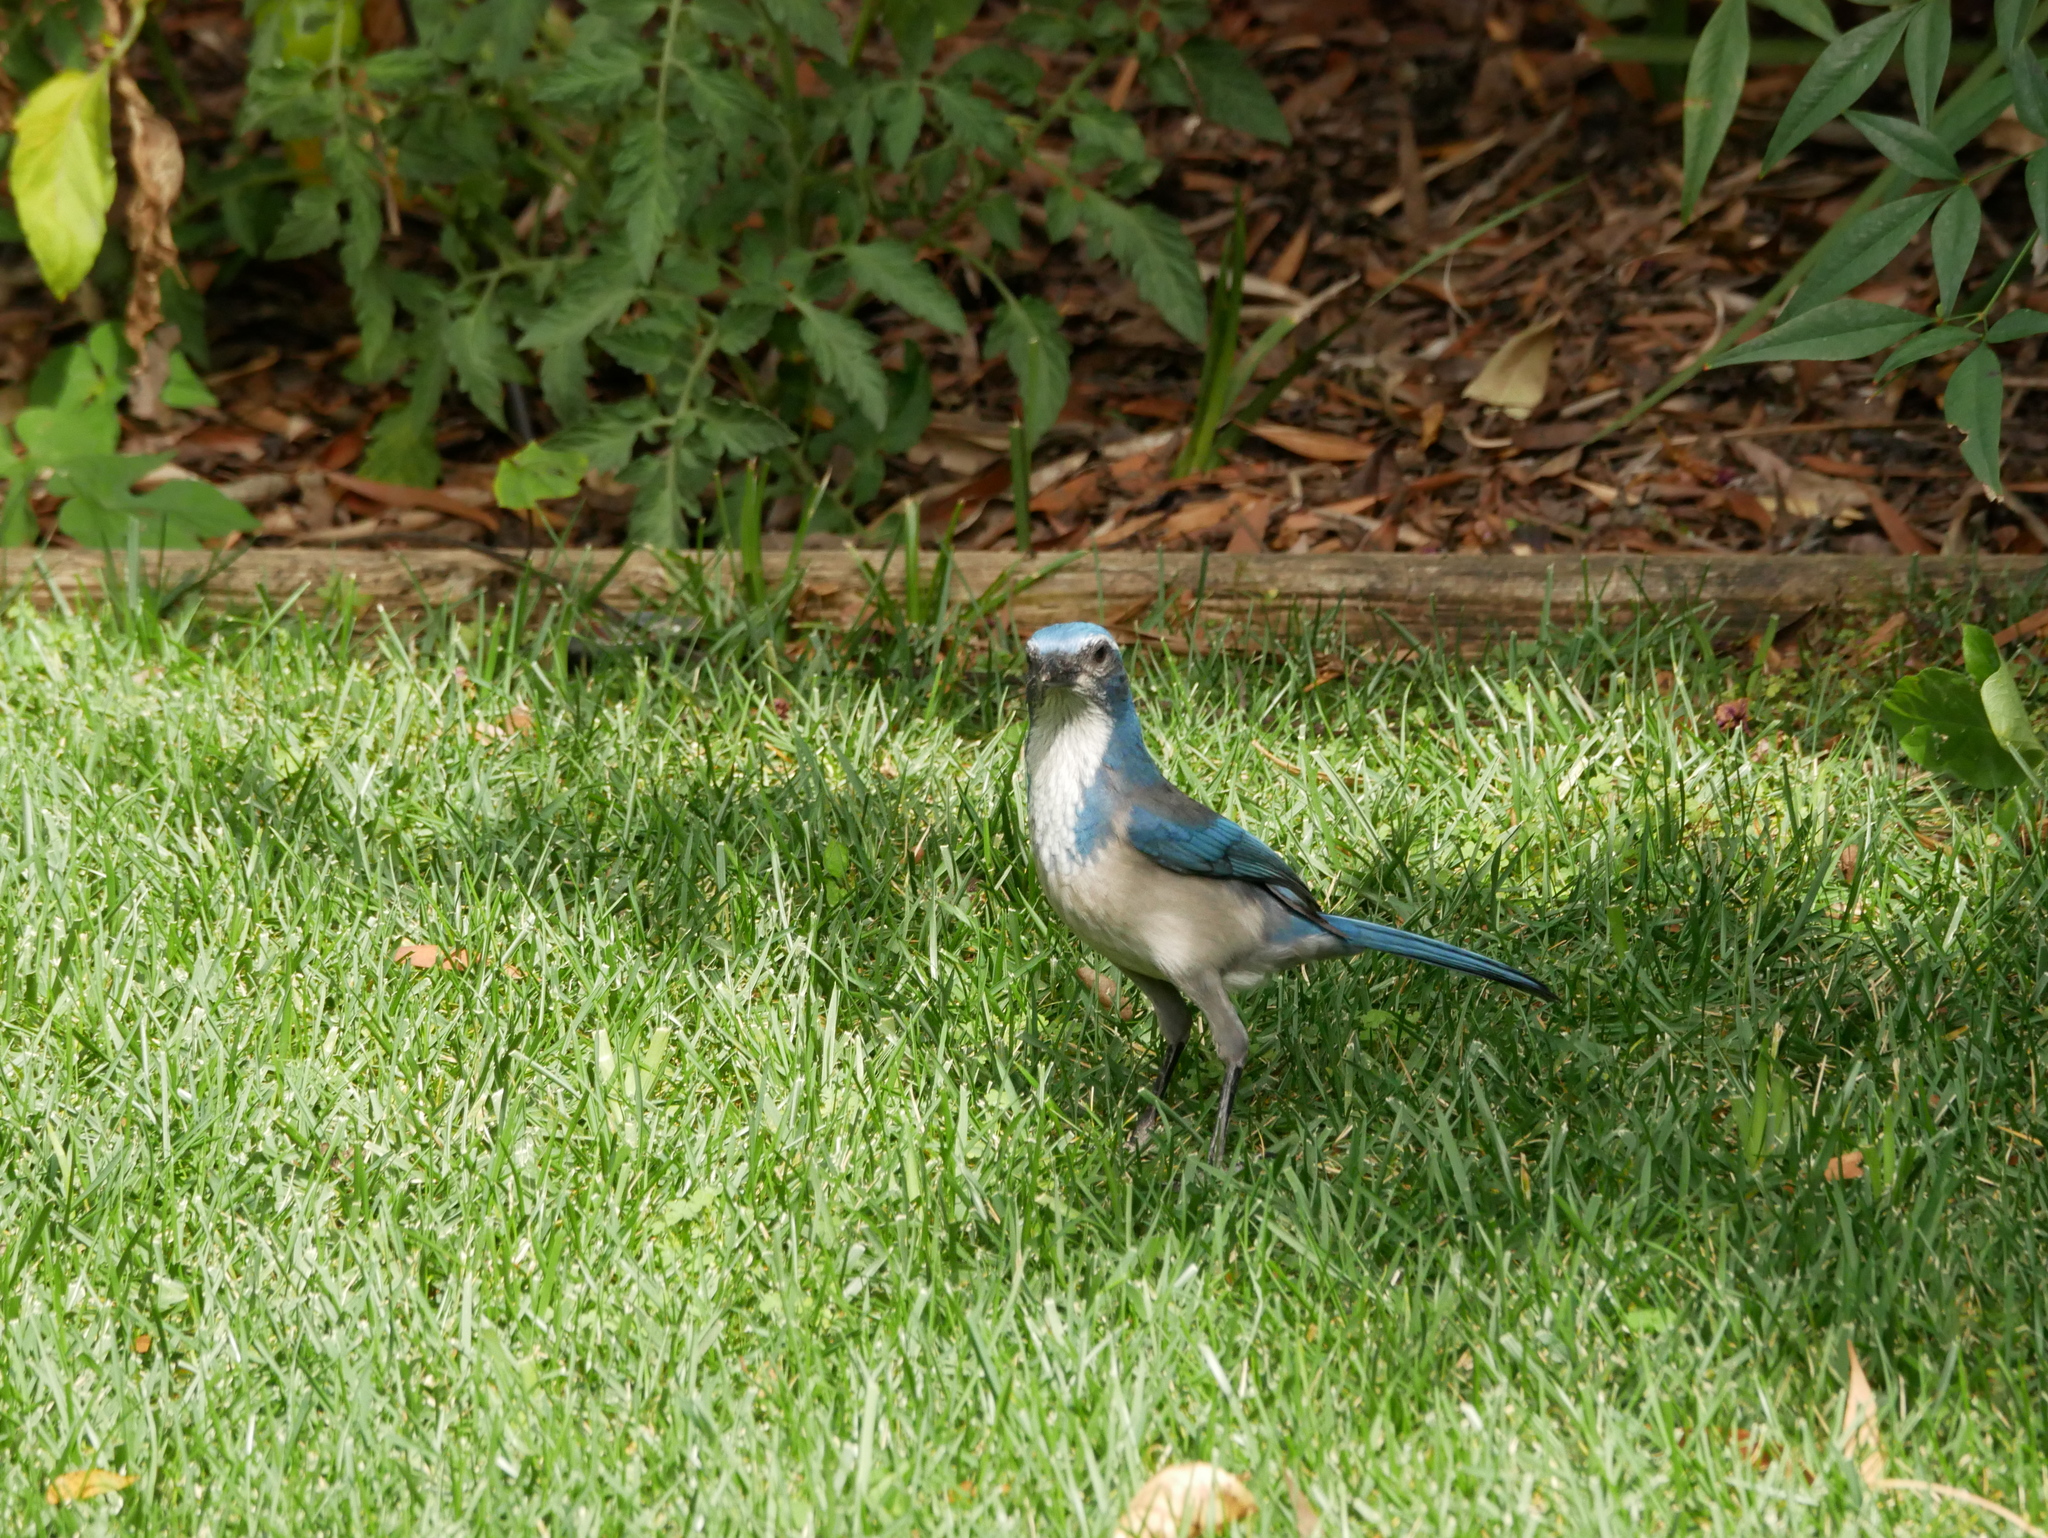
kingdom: Animalia
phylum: Chordata
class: Aves
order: Passeriformes
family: Corvidae
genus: Aphelocoma
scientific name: Aphelocoma californica
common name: California scrub-jay
